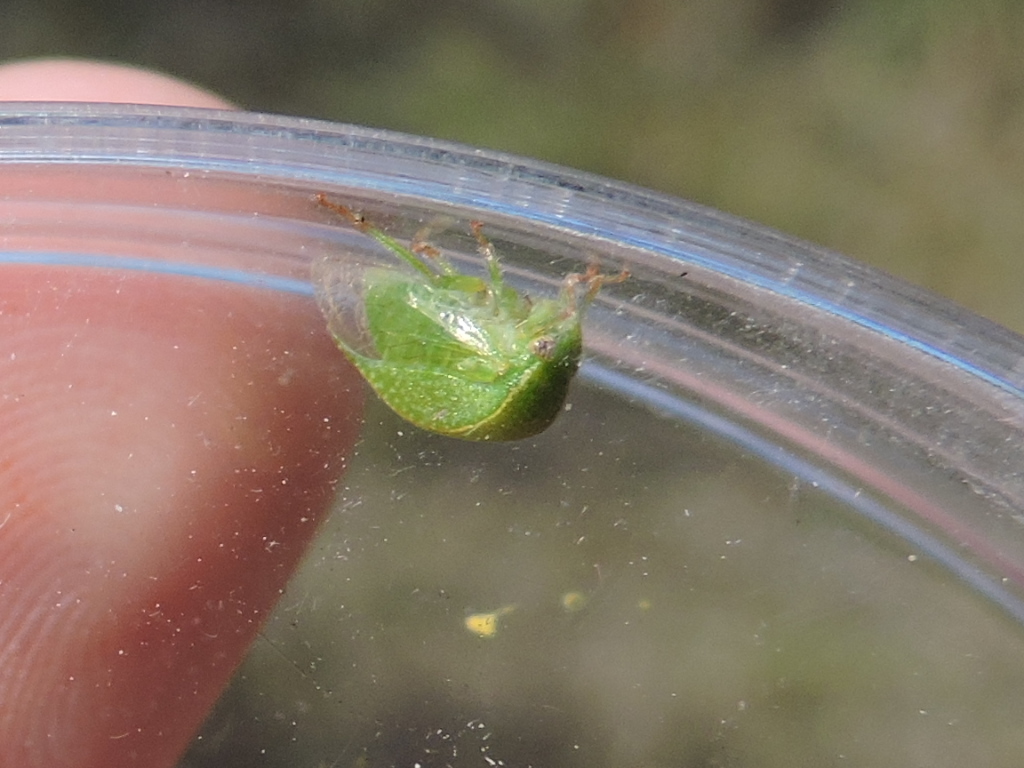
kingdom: Animalia
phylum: Arthropoda
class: Insecta
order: Hemiptera
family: Membracidae
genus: Spissistilus
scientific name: Spissistilus festina
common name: Membracid bug
